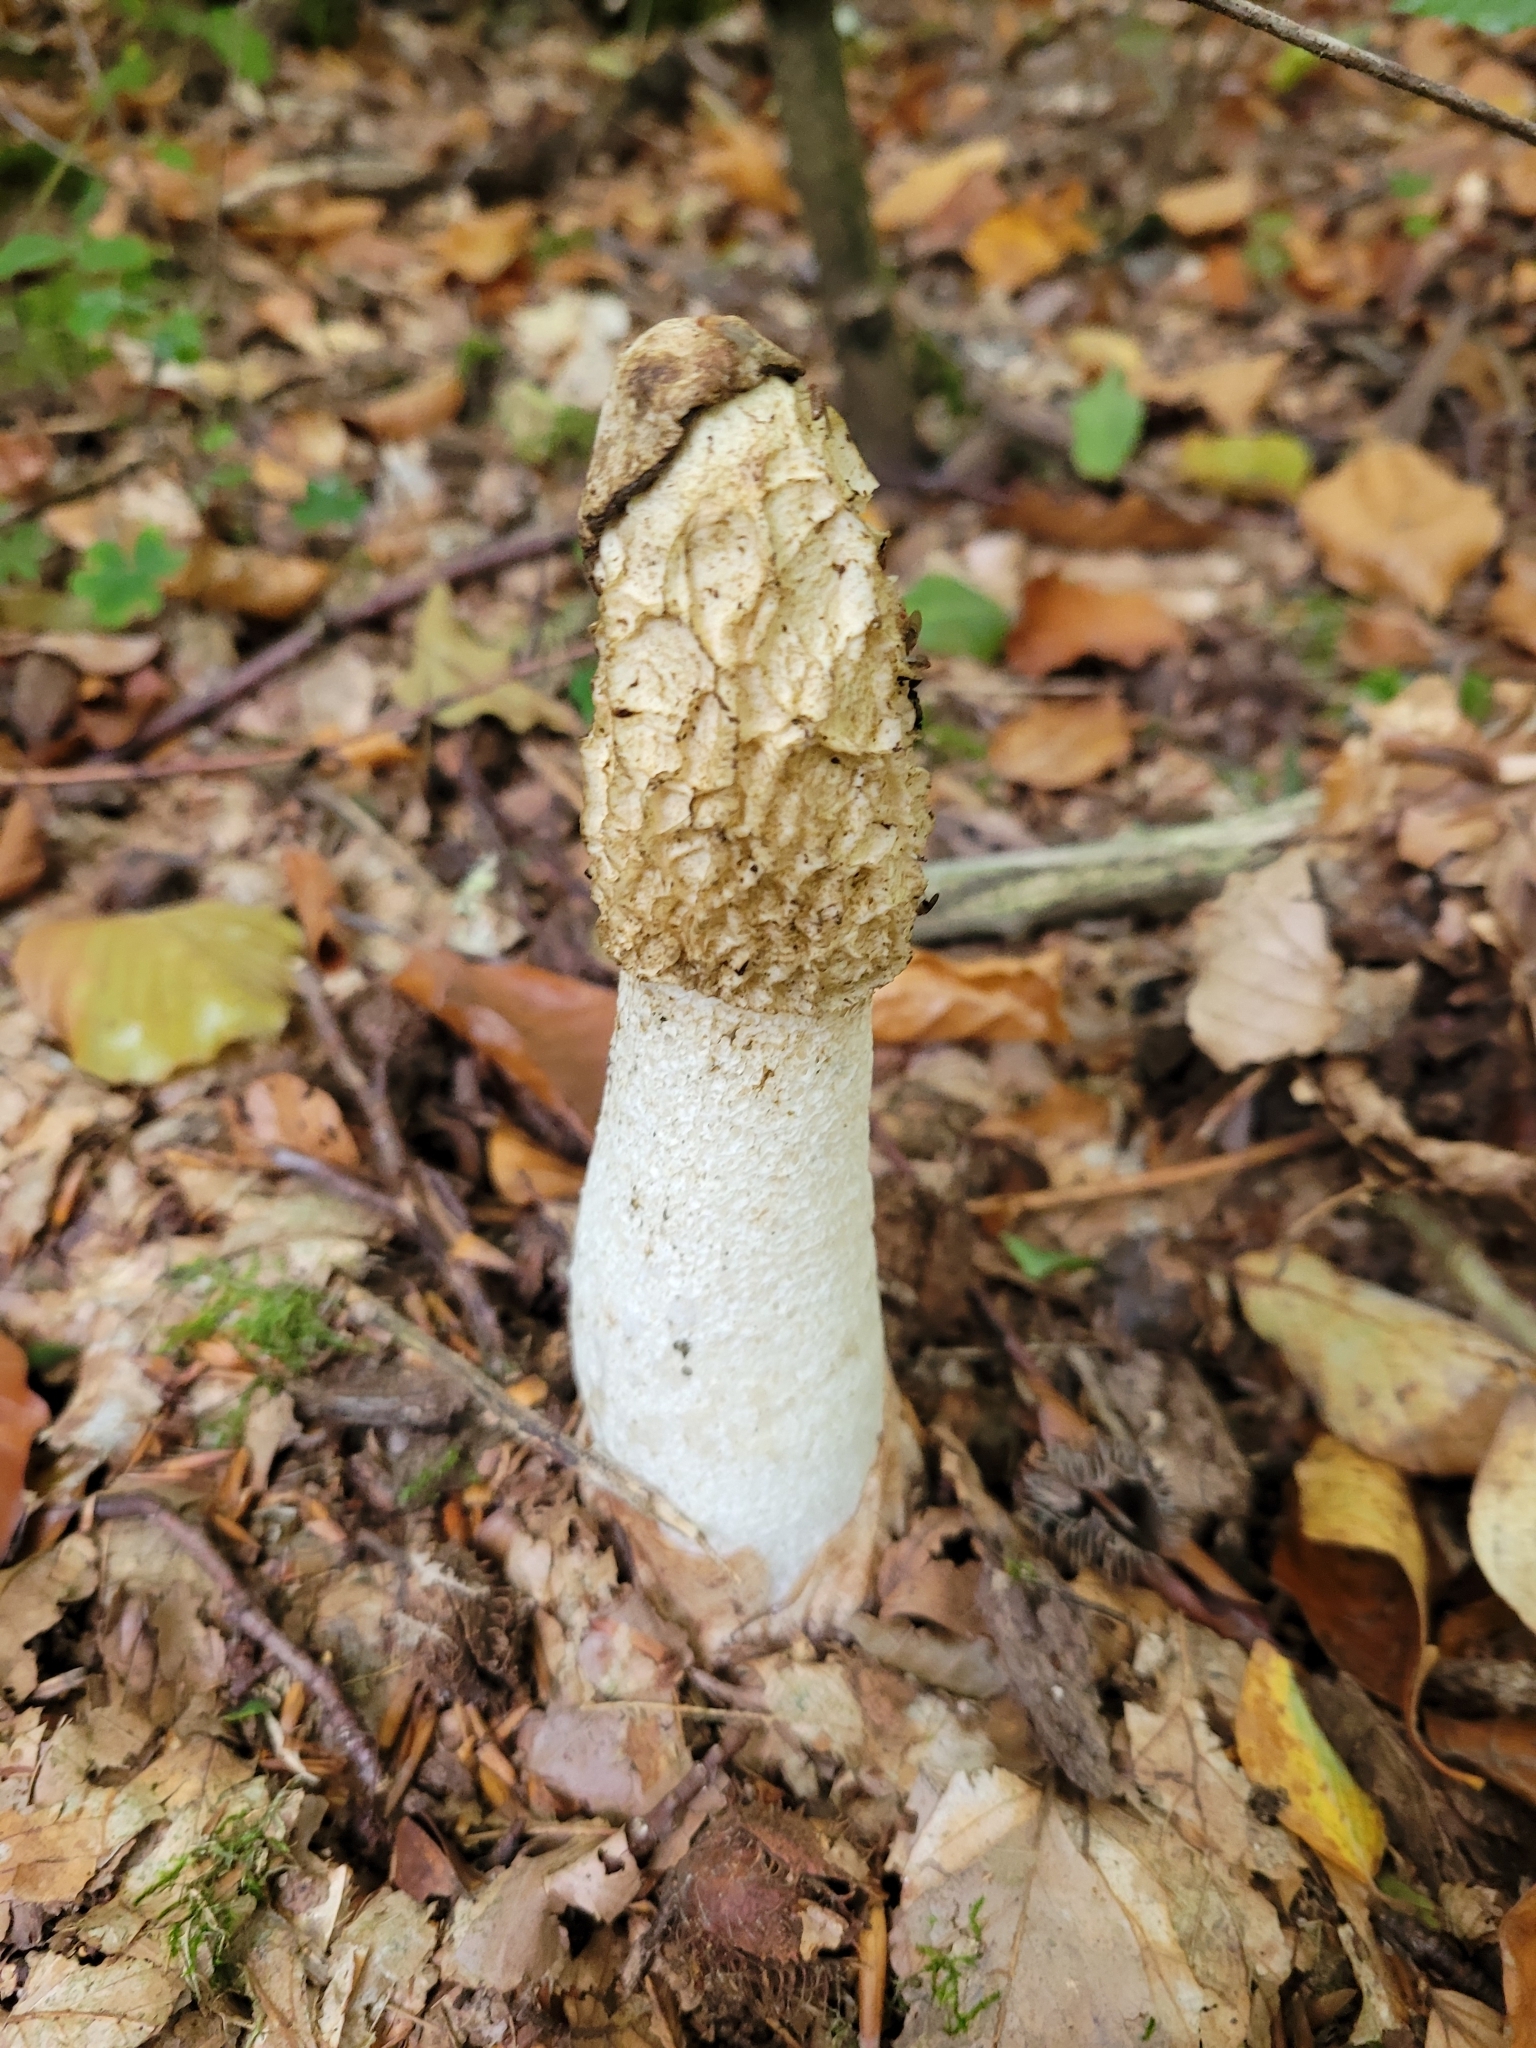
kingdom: Fungi
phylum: Basidiomycota
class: Agaricomycetes
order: Phallales
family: Phallaceae
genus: Phallus
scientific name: Phallus impudicus
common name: Common stinkhorn
